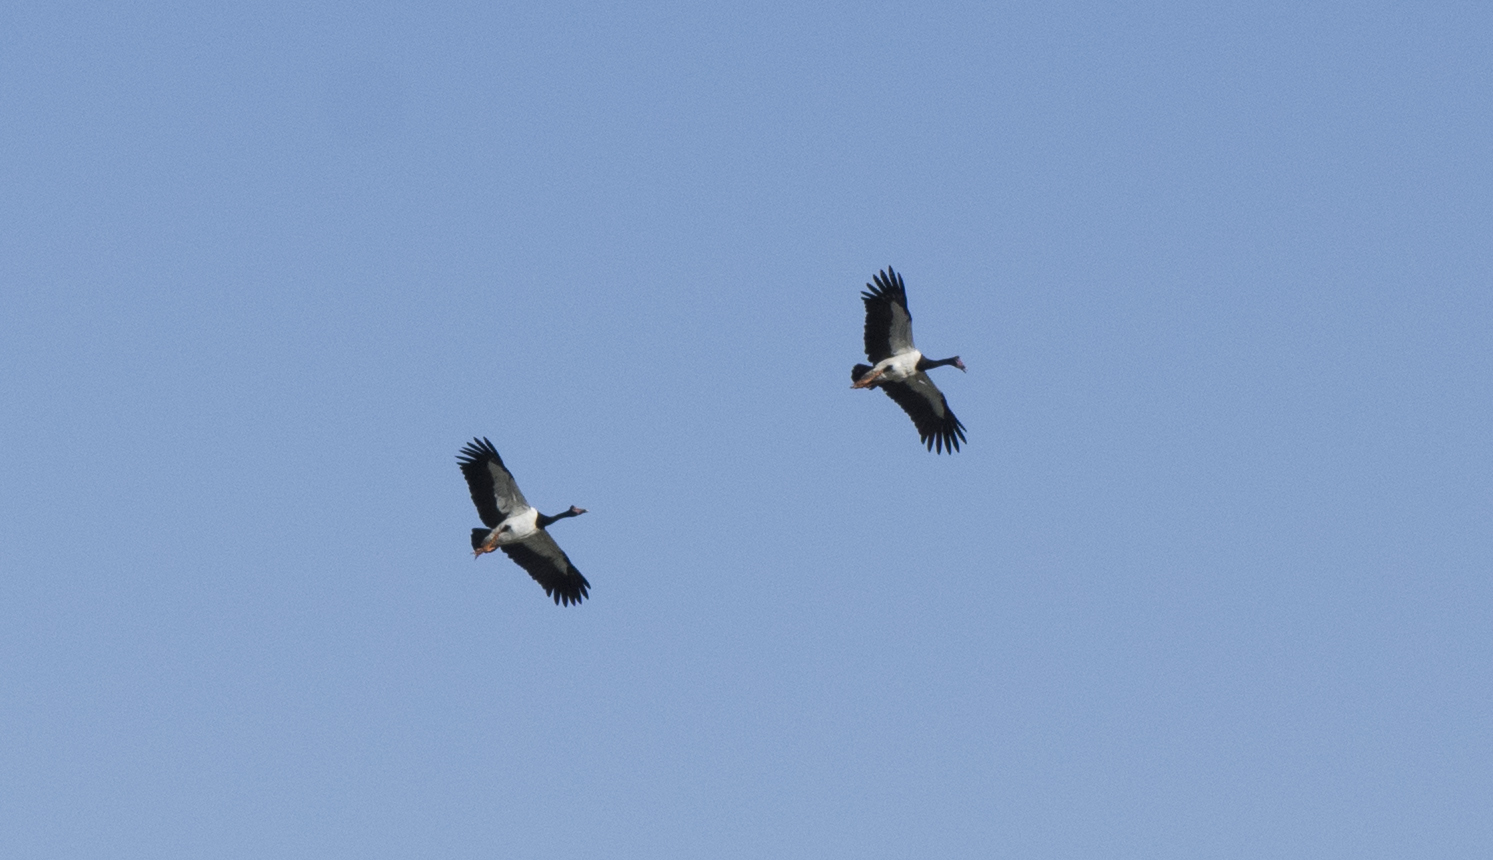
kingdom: Animalia
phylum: Chordata
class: Aves
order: Anseriformes
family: Anseranatidae
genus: Anseranas
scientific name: Anseranas semipalmata
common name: Magpie goose
